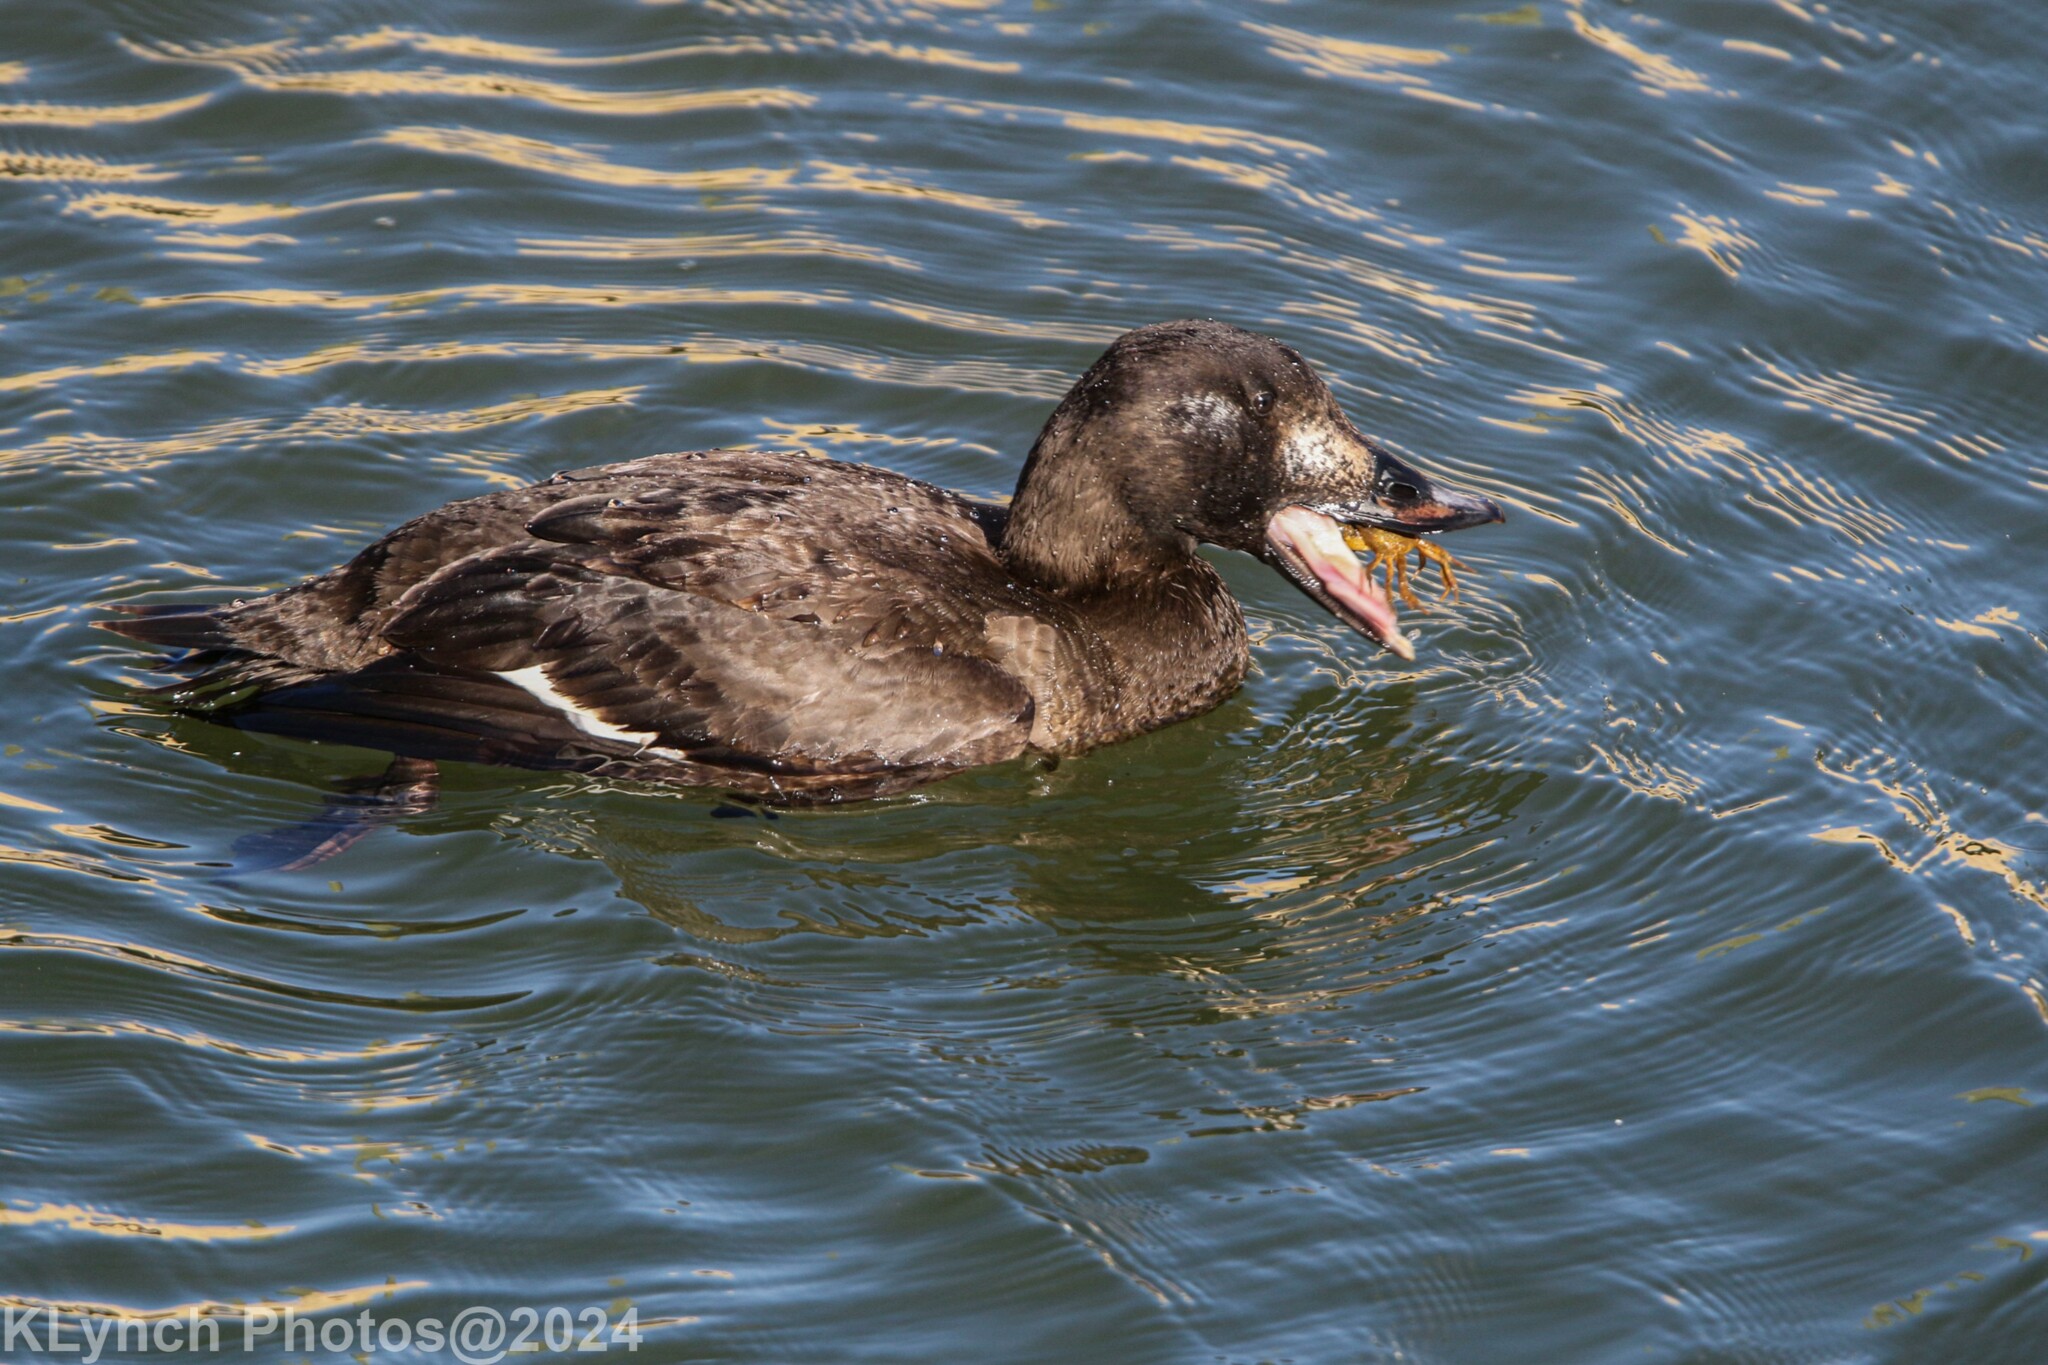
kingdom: Animalia
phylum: Chordata
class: Aves
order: Anseriformes
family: Anatidae
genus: Melanitta
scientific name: Melanitta deglandi
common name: White-winged scoter
